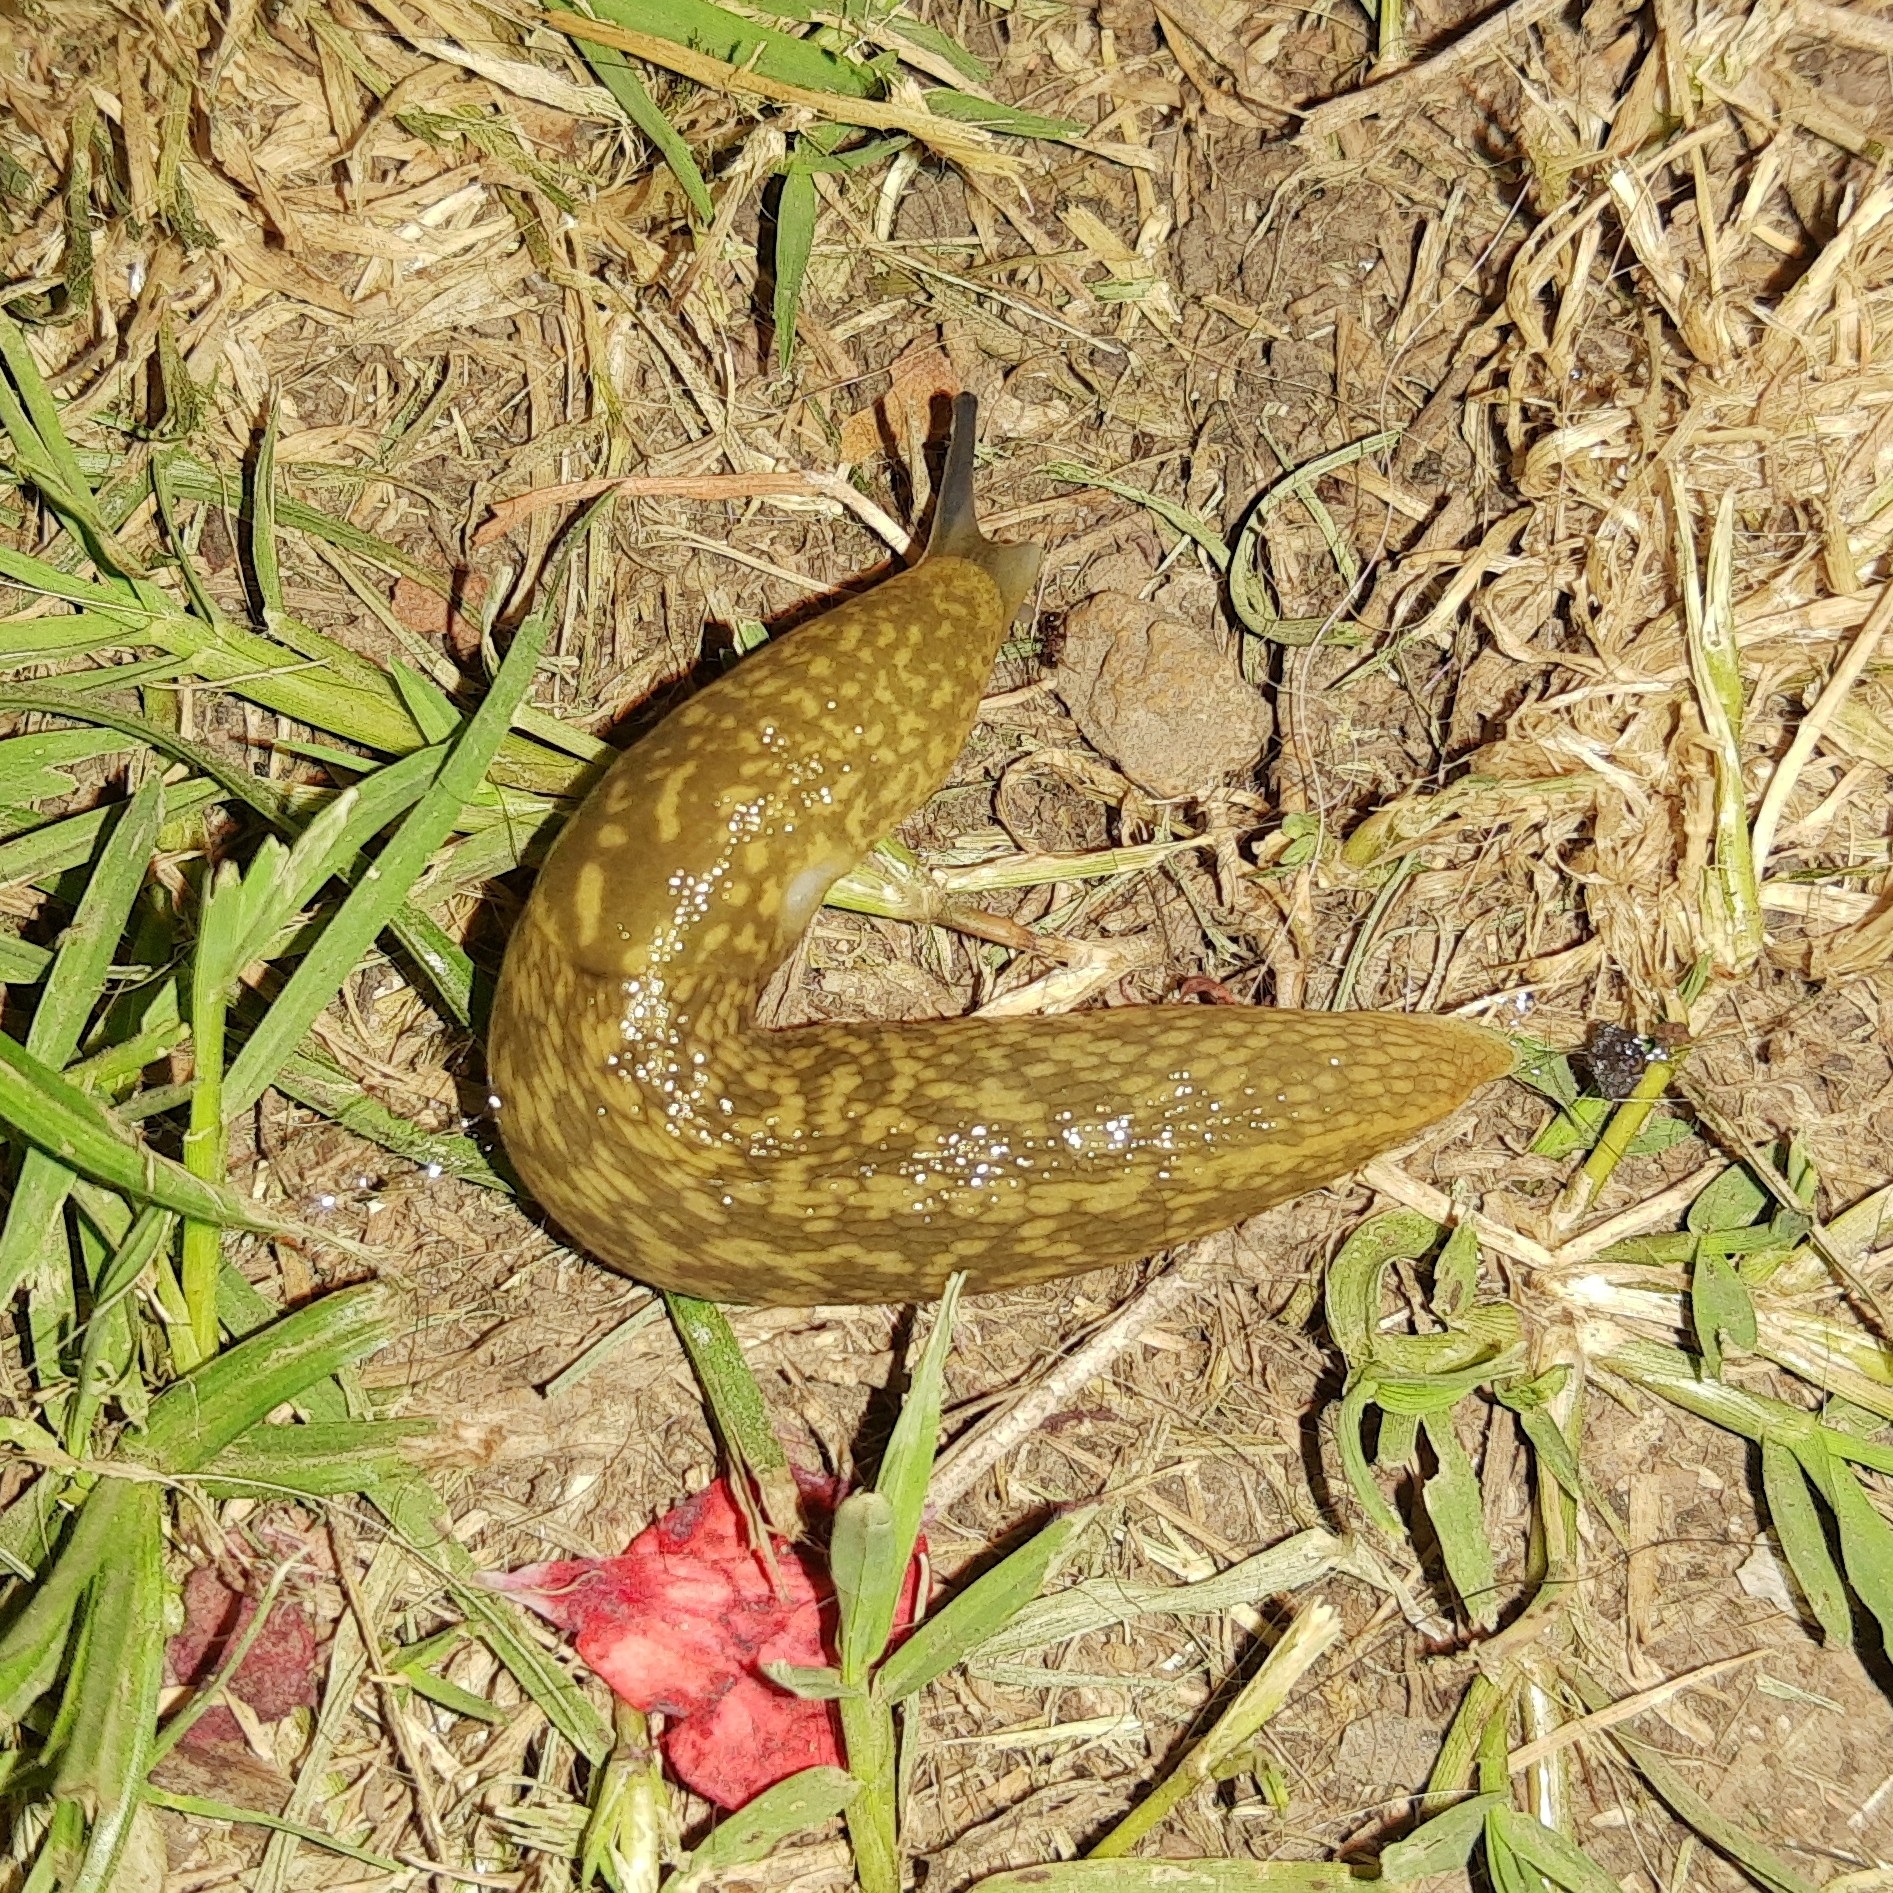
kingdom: Animalia
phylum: Mollusca
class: Gastropoda
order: Stylommatophora
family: Limacidae
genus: Limacus
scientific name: Limacus flavus
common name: Yellow gardenslug
